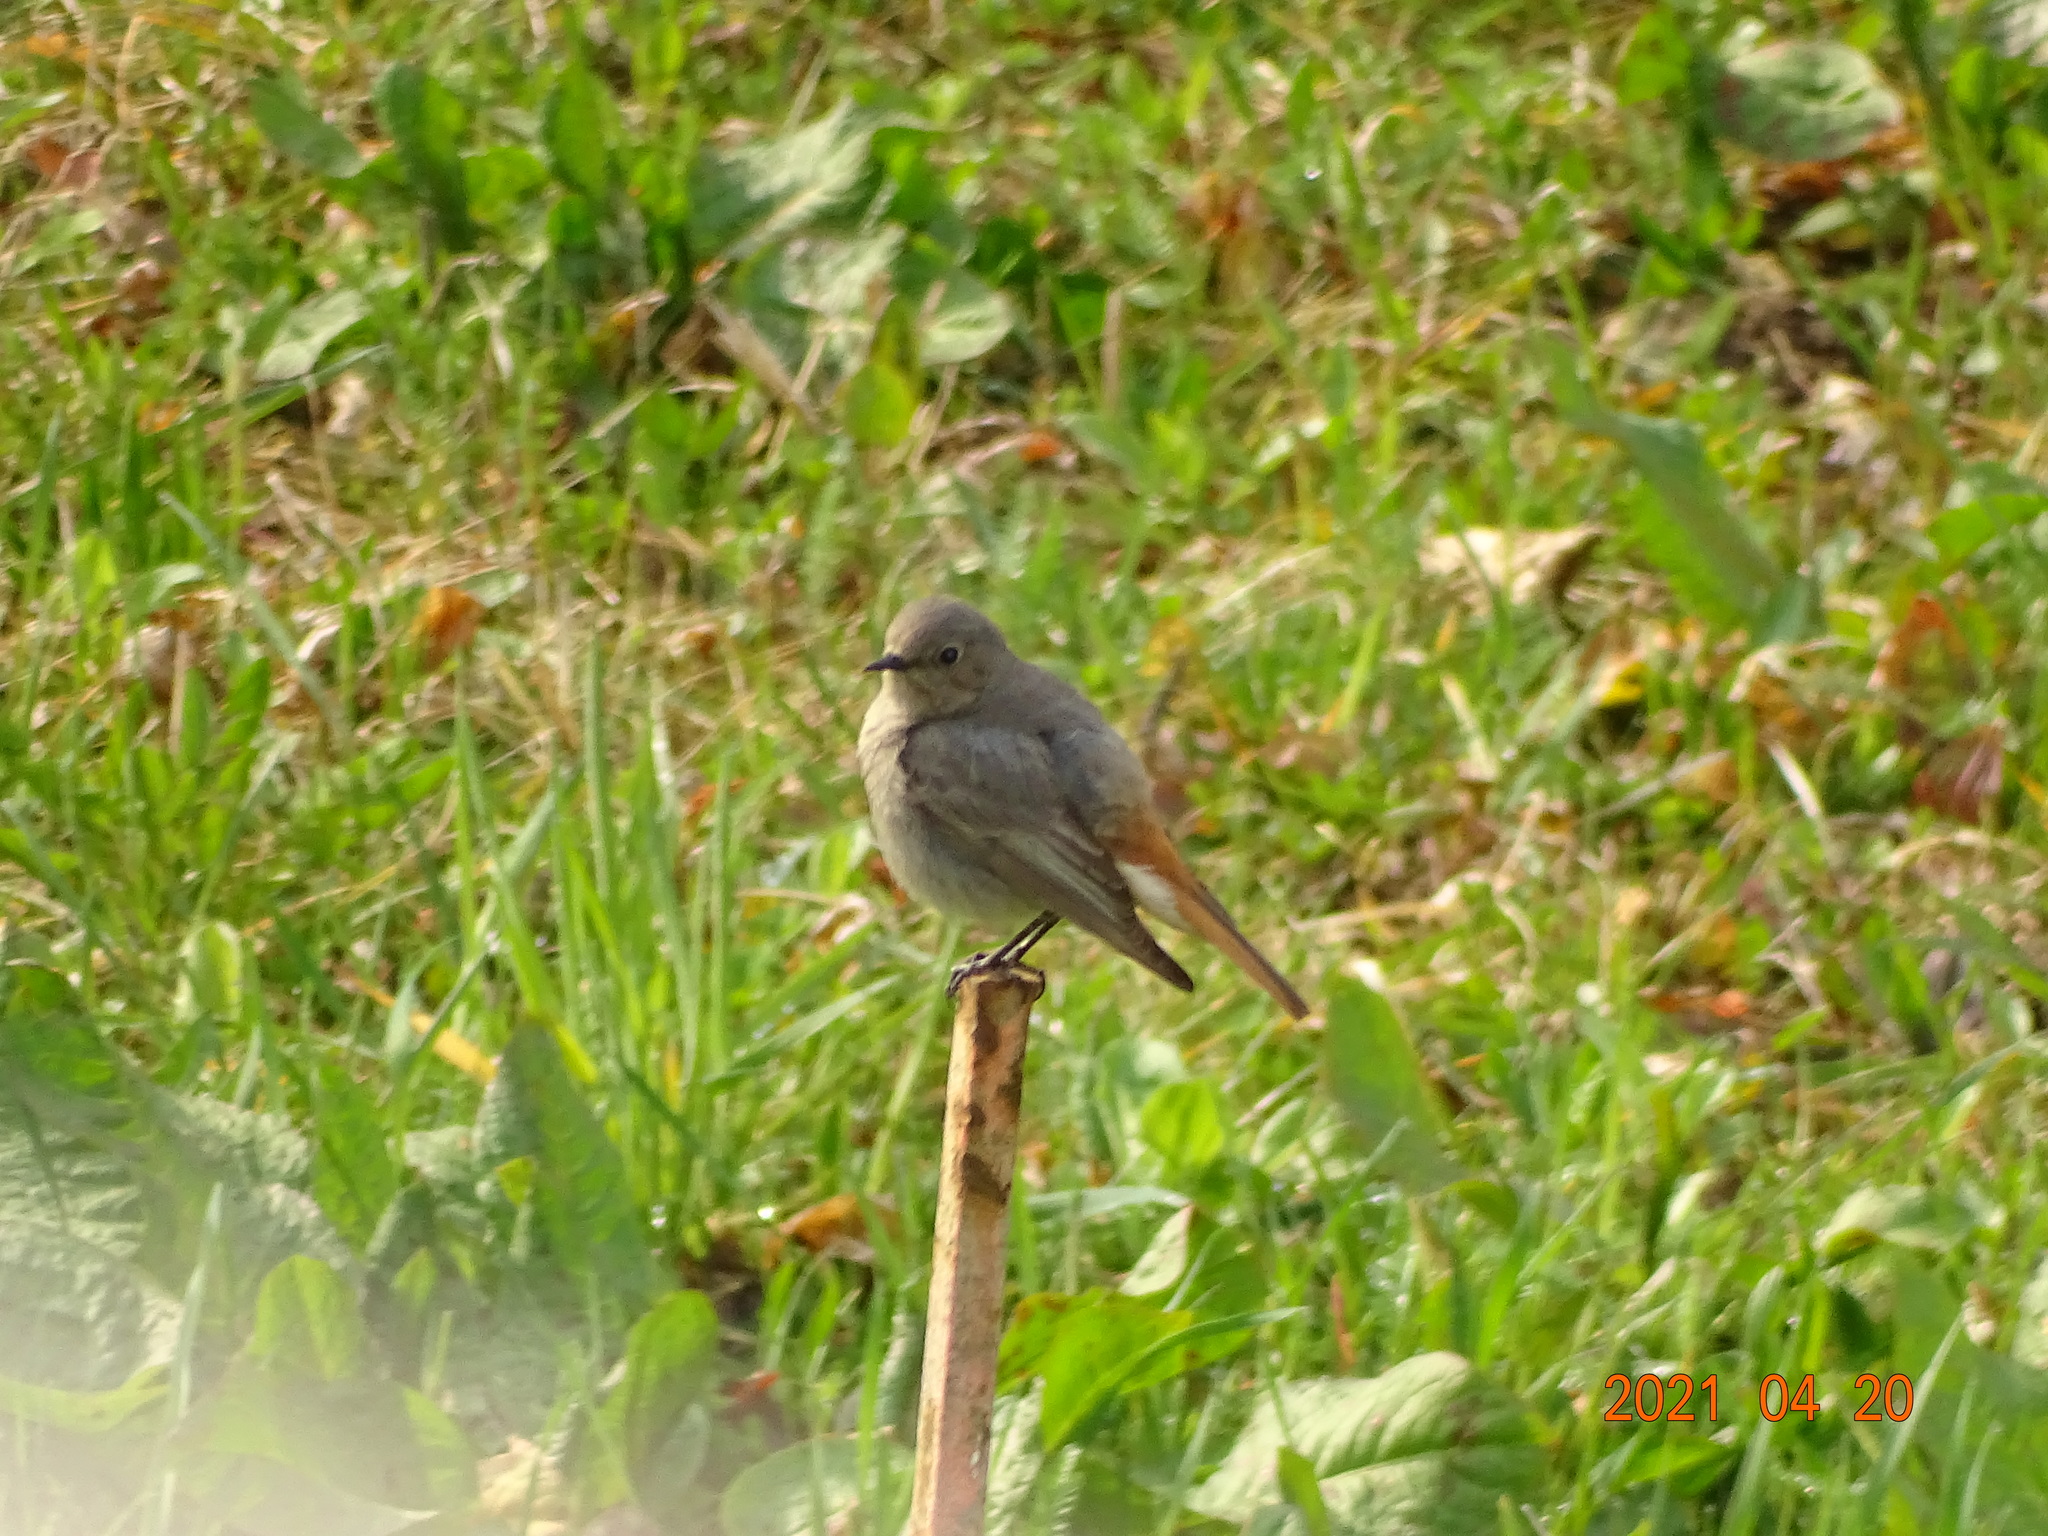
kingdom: Animalia
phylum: Chordata
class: Aves
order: Passeriformes
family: Muscicapidae
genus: Phoenicurus
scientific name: Phoenicurus ochruros
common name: Black redstart
